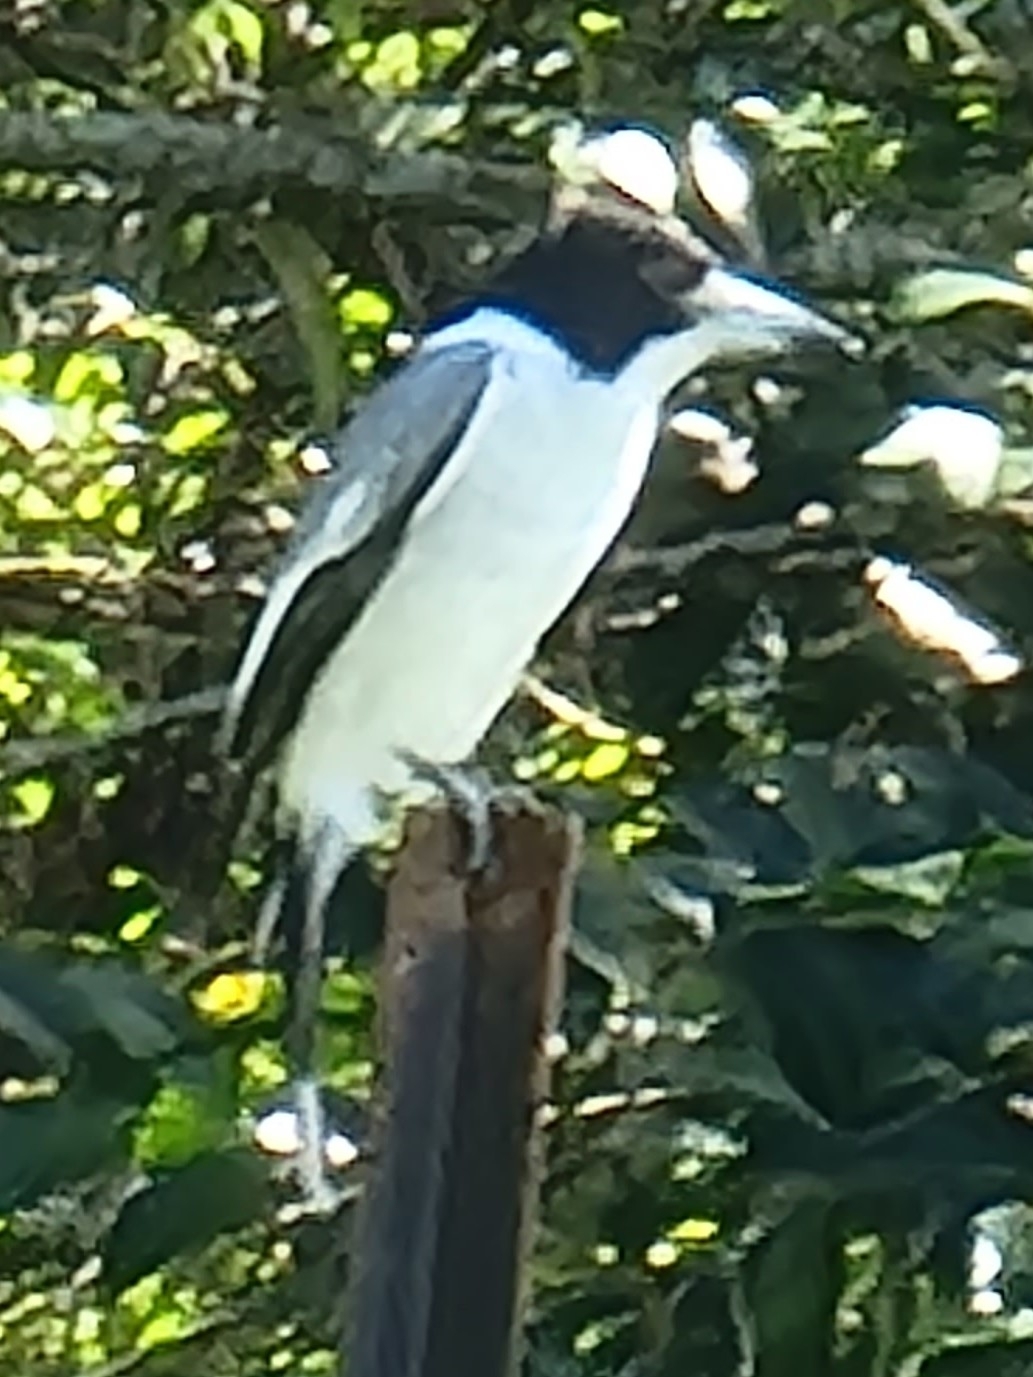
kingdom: Animalia
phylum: Chordata
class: Aves
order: Passeriformes
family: Cracticidae
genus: Cracticus
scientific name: Cracticus torquatus
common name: Grey butcherbird
